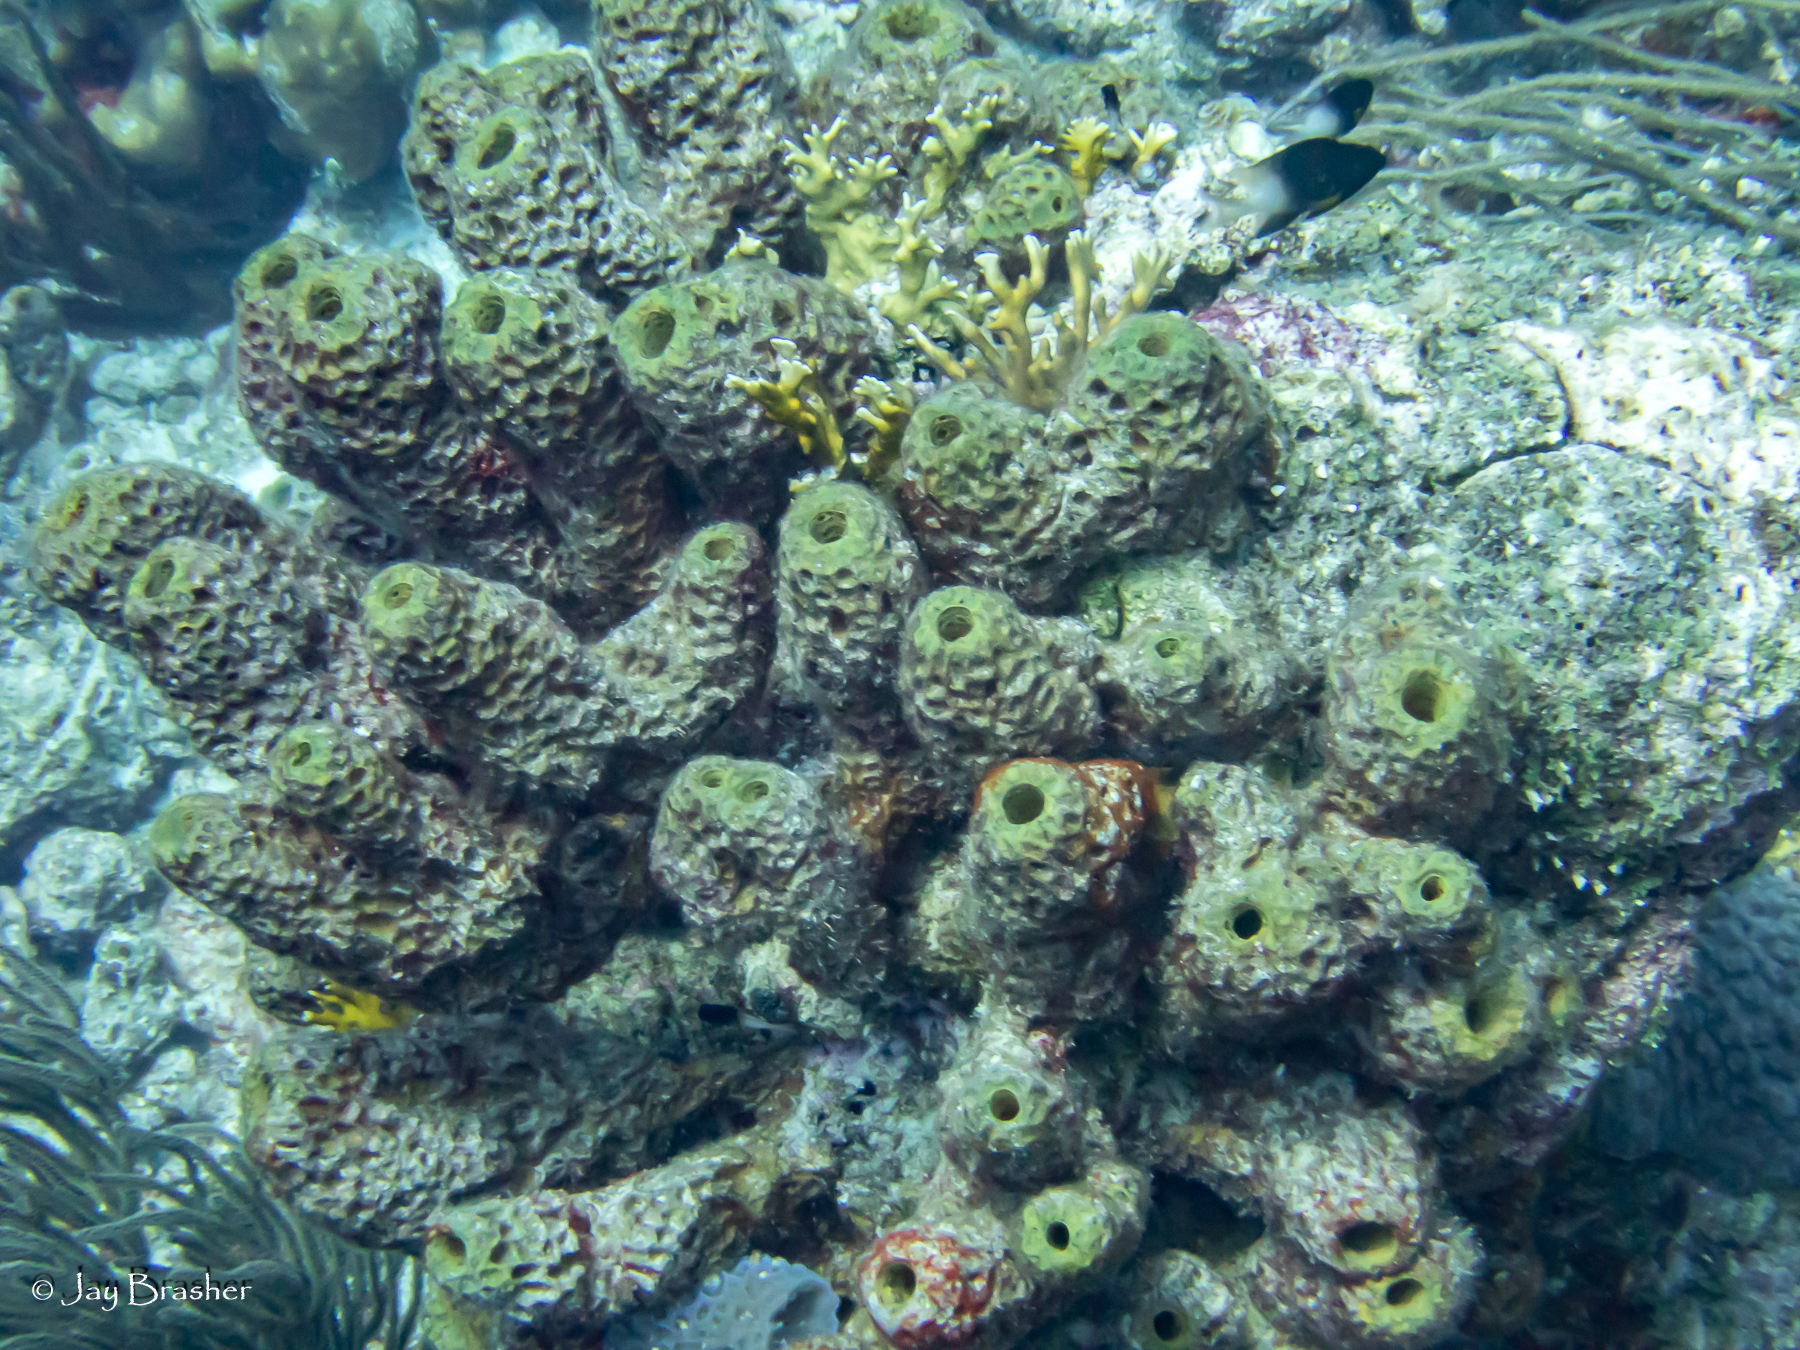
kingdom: Animalia
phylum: Porifera
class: Demospongiae
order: Verongiida
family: Aplysinidae
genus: Verongula
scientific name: Verongula rigida
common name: Pitted sponge
